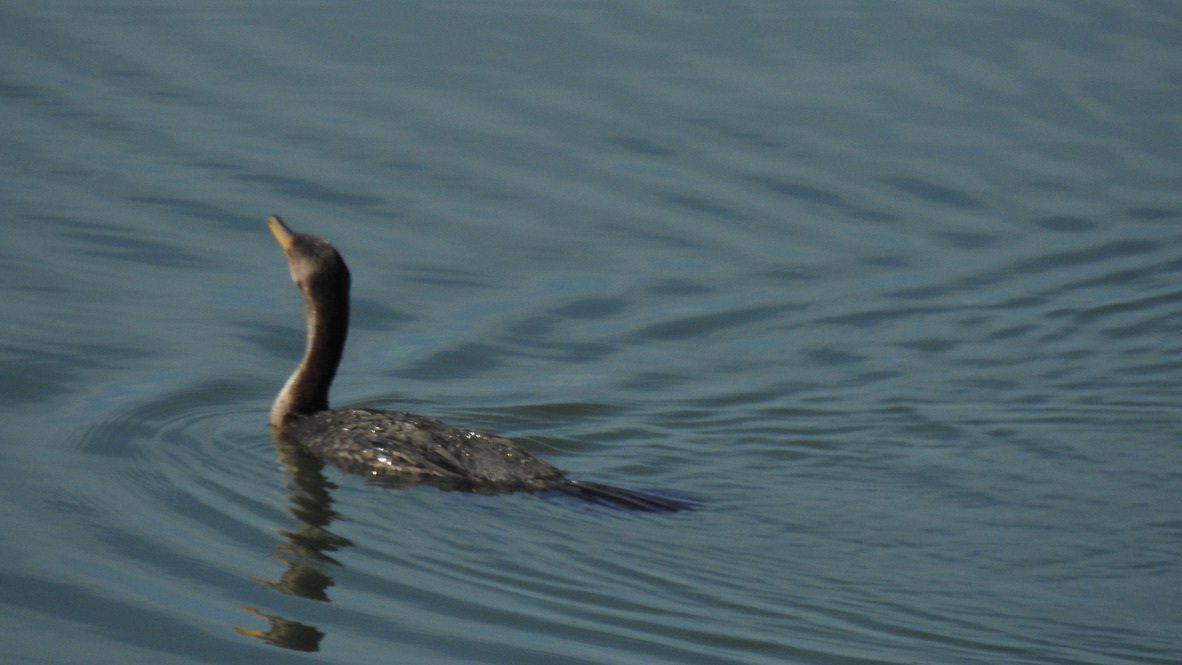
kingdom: Animalia
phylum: Chordata
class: Aves
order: Suliformes
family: Phalacrocoracidae
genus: Phalacrocorax
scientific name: Phalacrocorax auritus
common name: Double-crested cormorant
